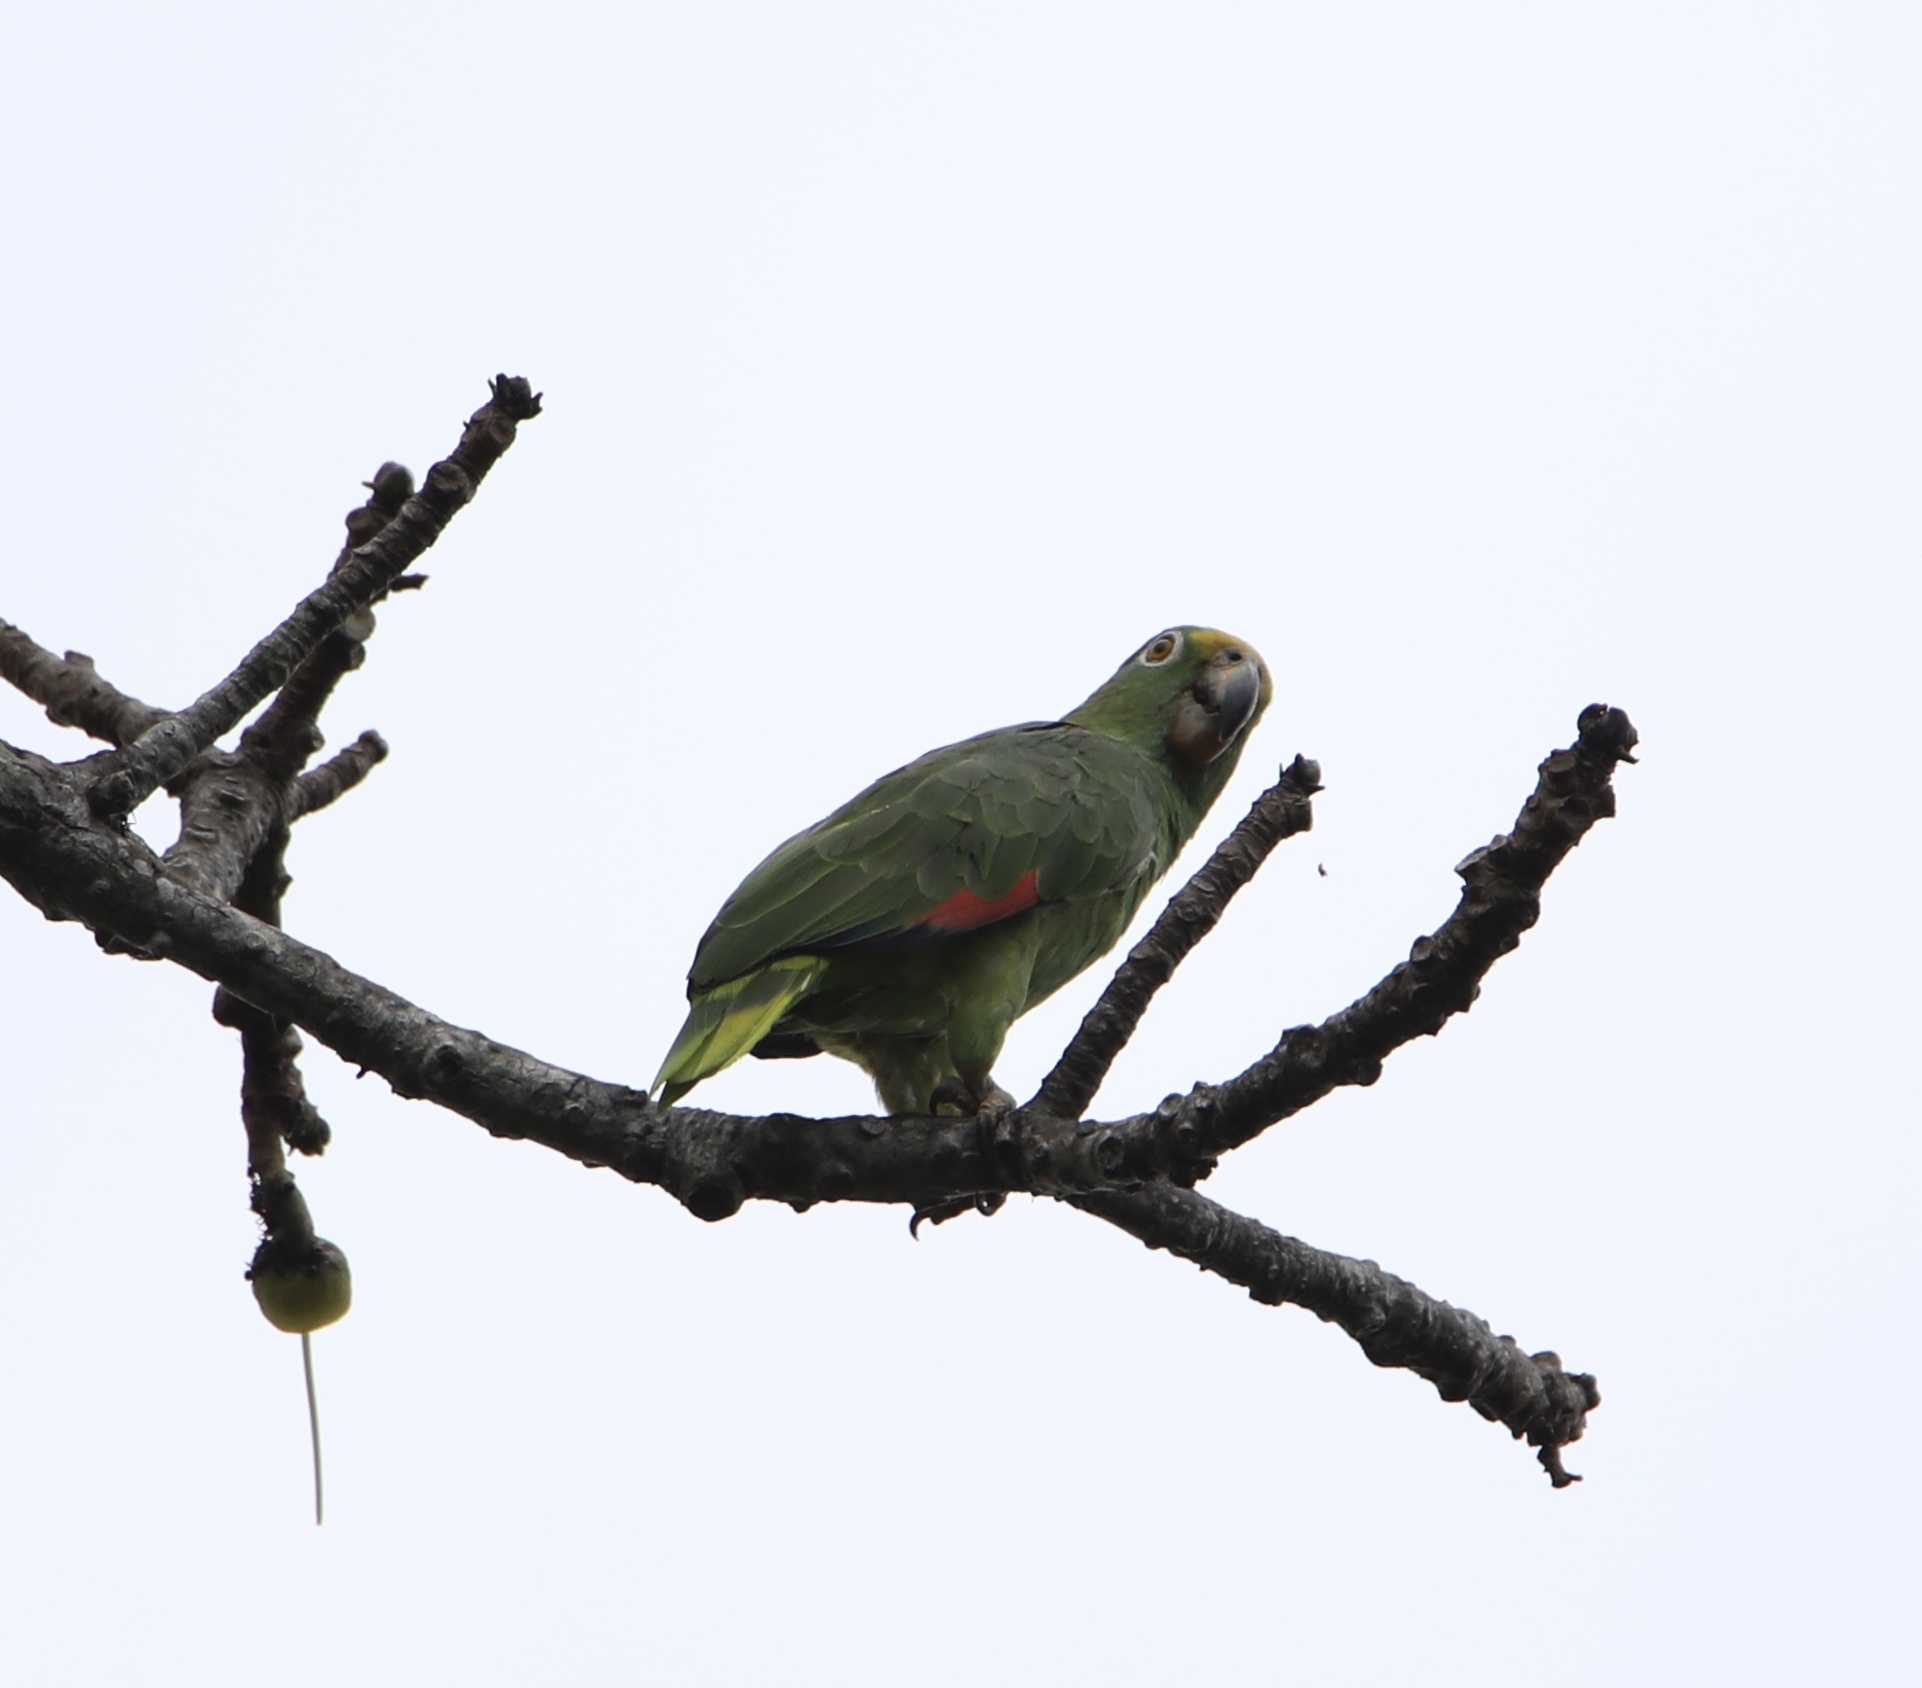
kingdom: Animalia
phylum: Chordata
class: Aves
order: Psittaciformes
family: Psittacidae
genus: Amazona
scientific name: Amazona ochrocephala
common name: Yellow-crowned amazon
